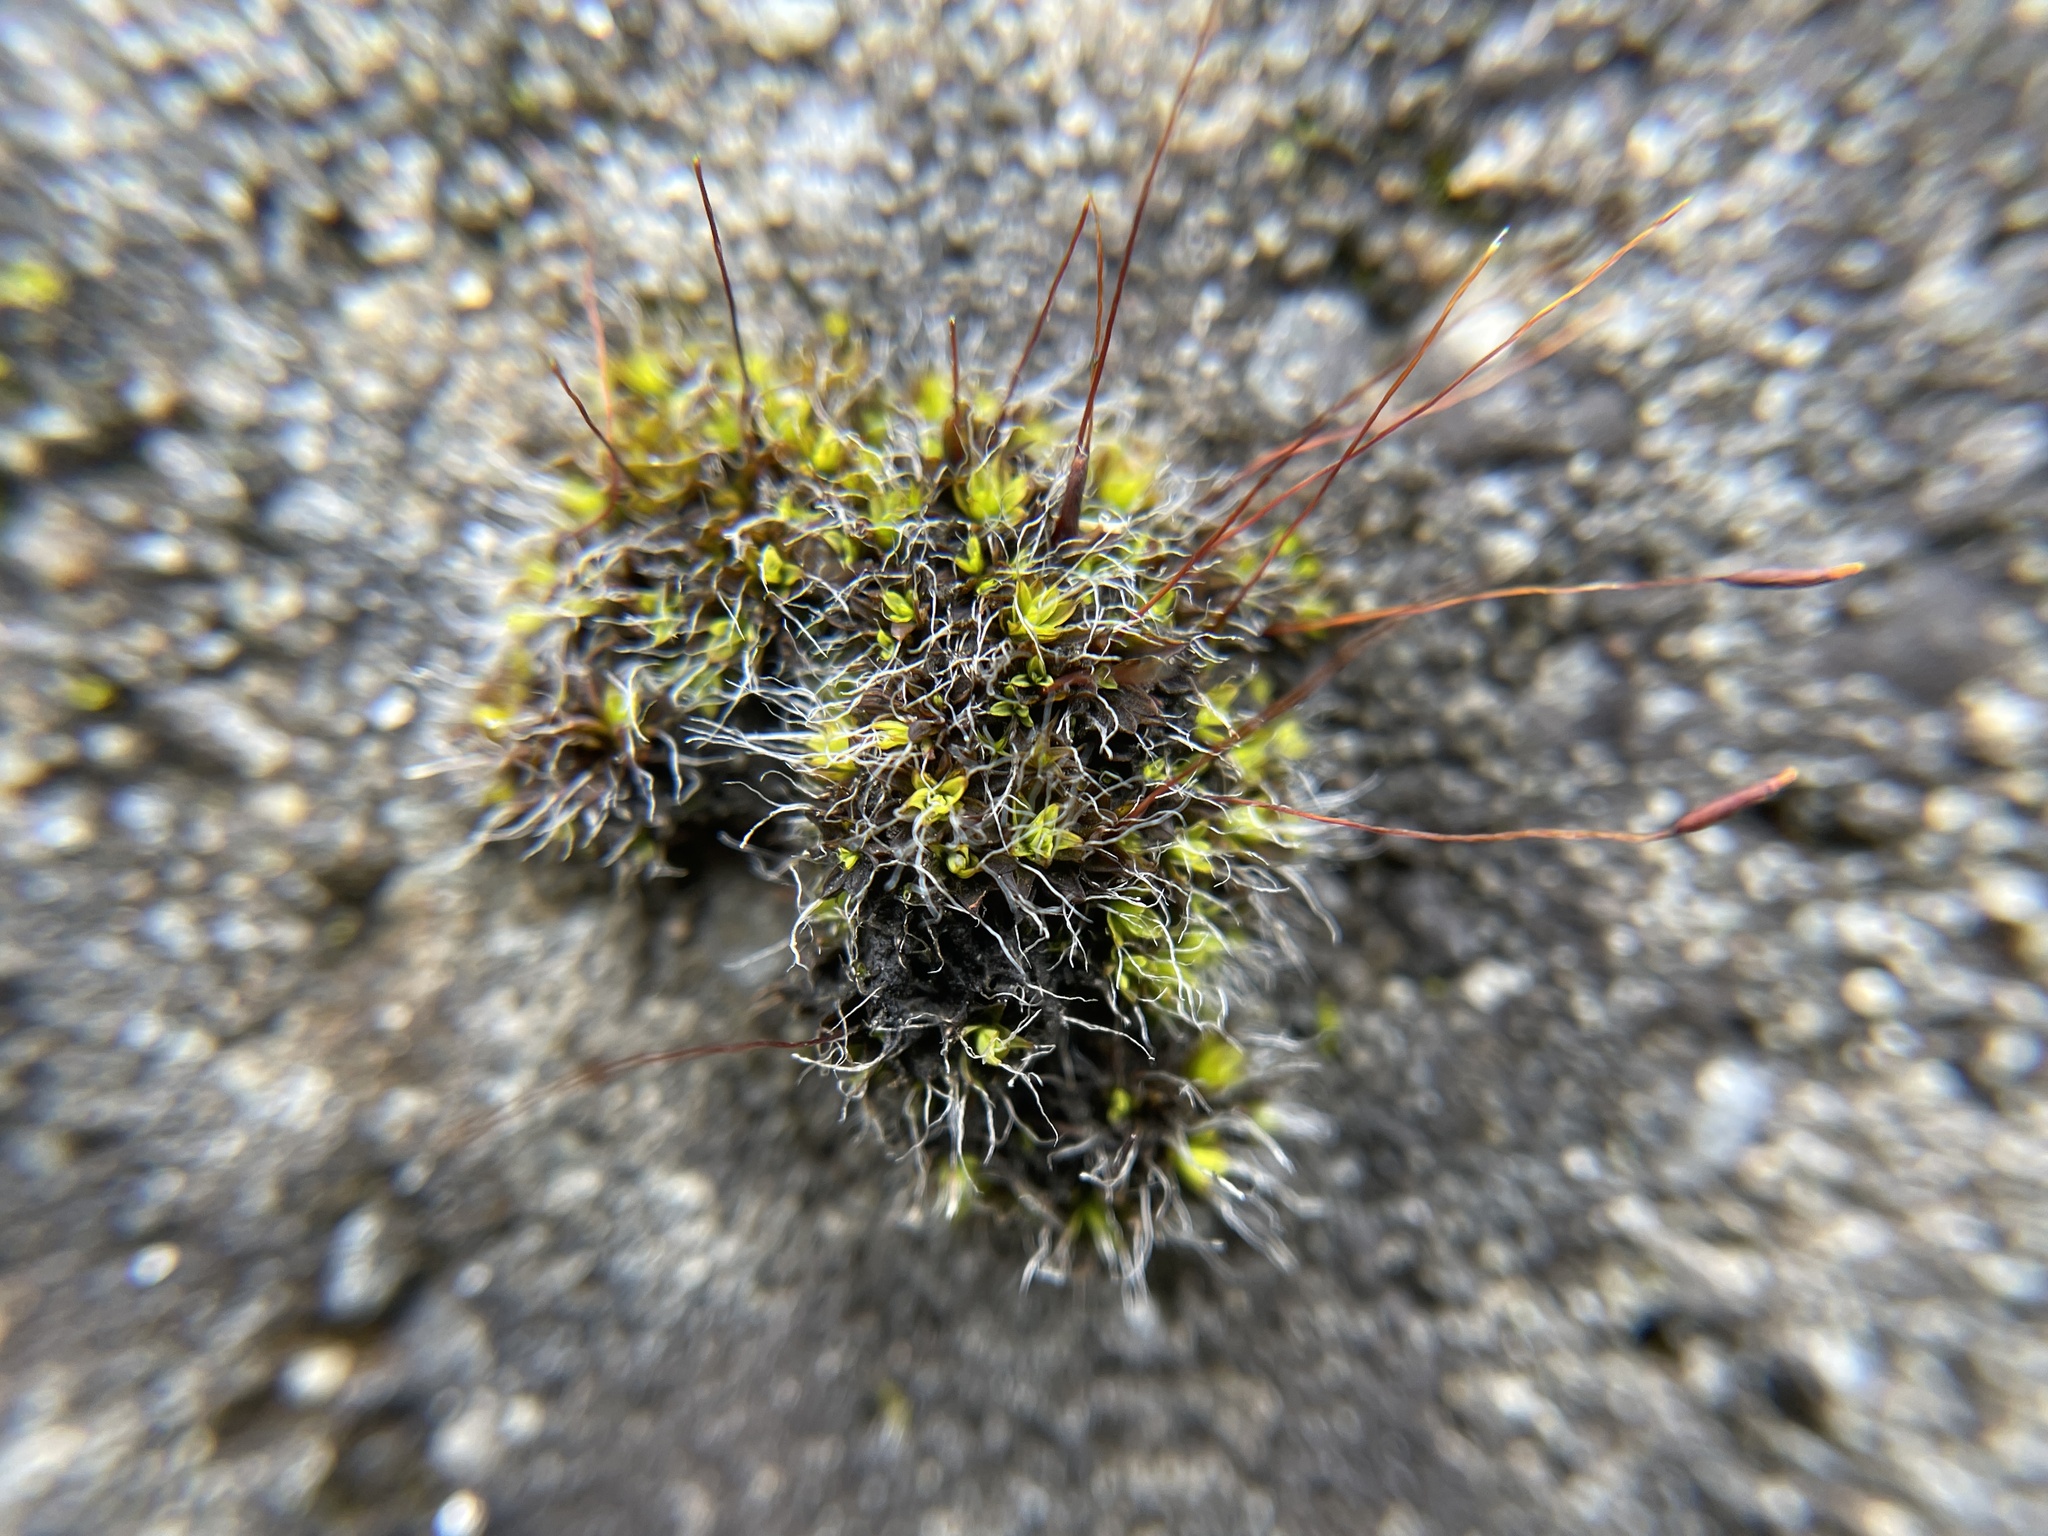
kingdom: Plantae
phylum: Bryophyta
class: Bryopsida
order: Pottiales
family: Pottiaceae
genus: Tortula
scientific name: Tortula muralis
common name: Wall screw-moss
